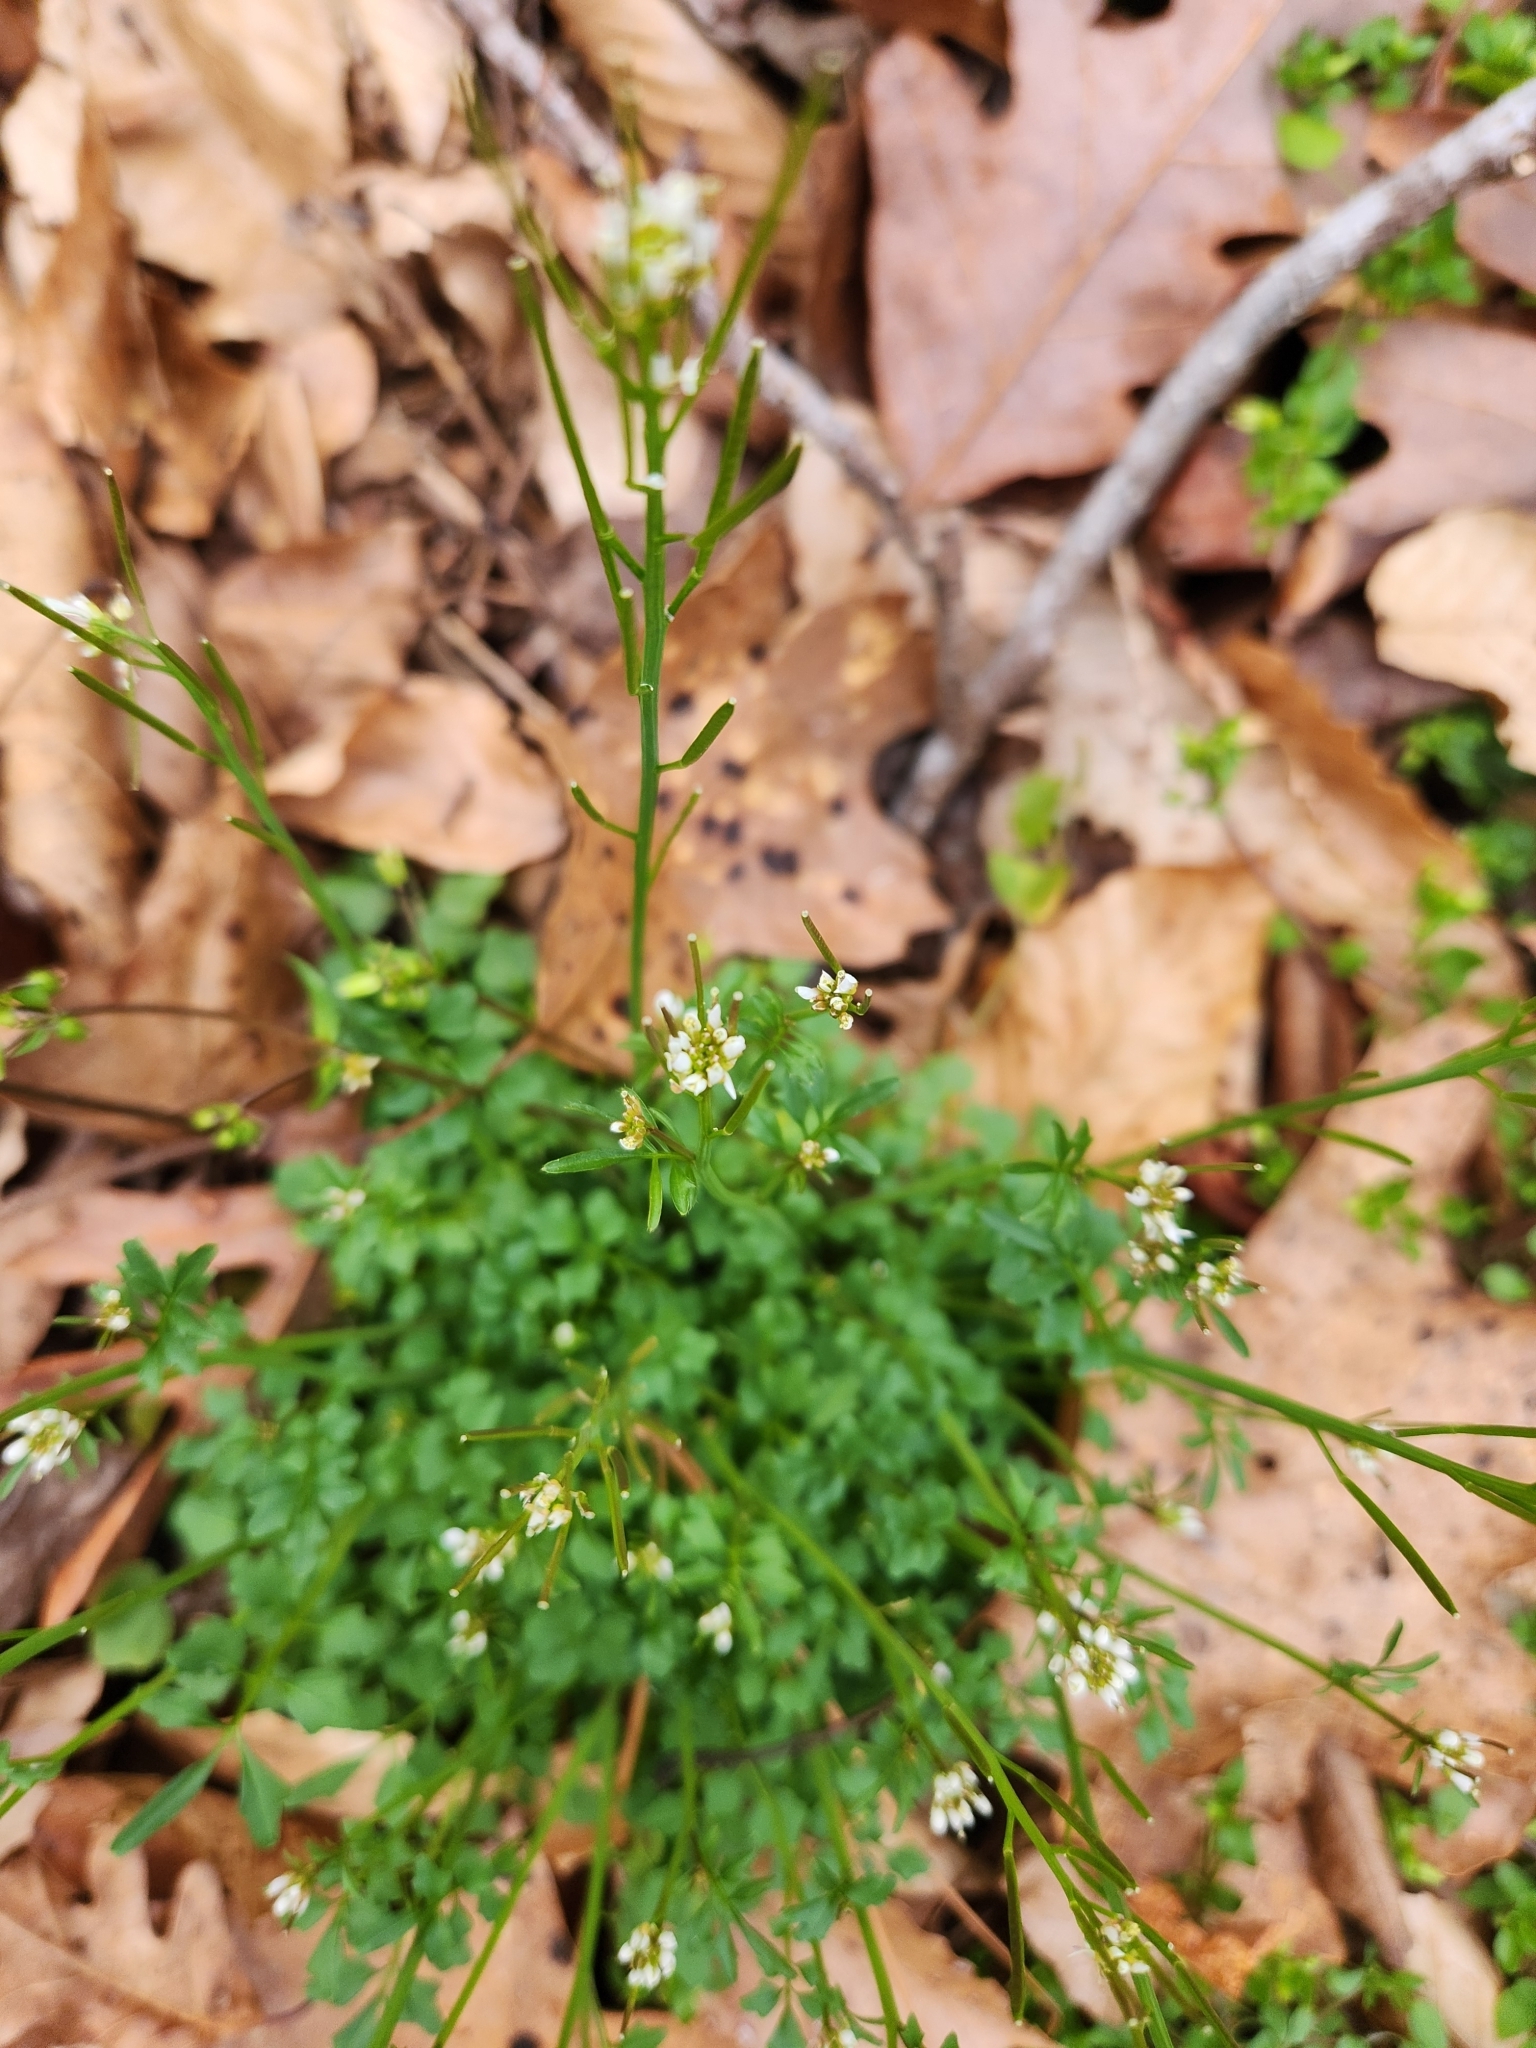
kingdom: Plantae
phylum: Tracheophyta
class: Magnoliopsida
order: Brassicales
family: Brassicaceae
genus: Cardamine
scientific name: Cardamine hirsuta
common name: Hairy bittercress
